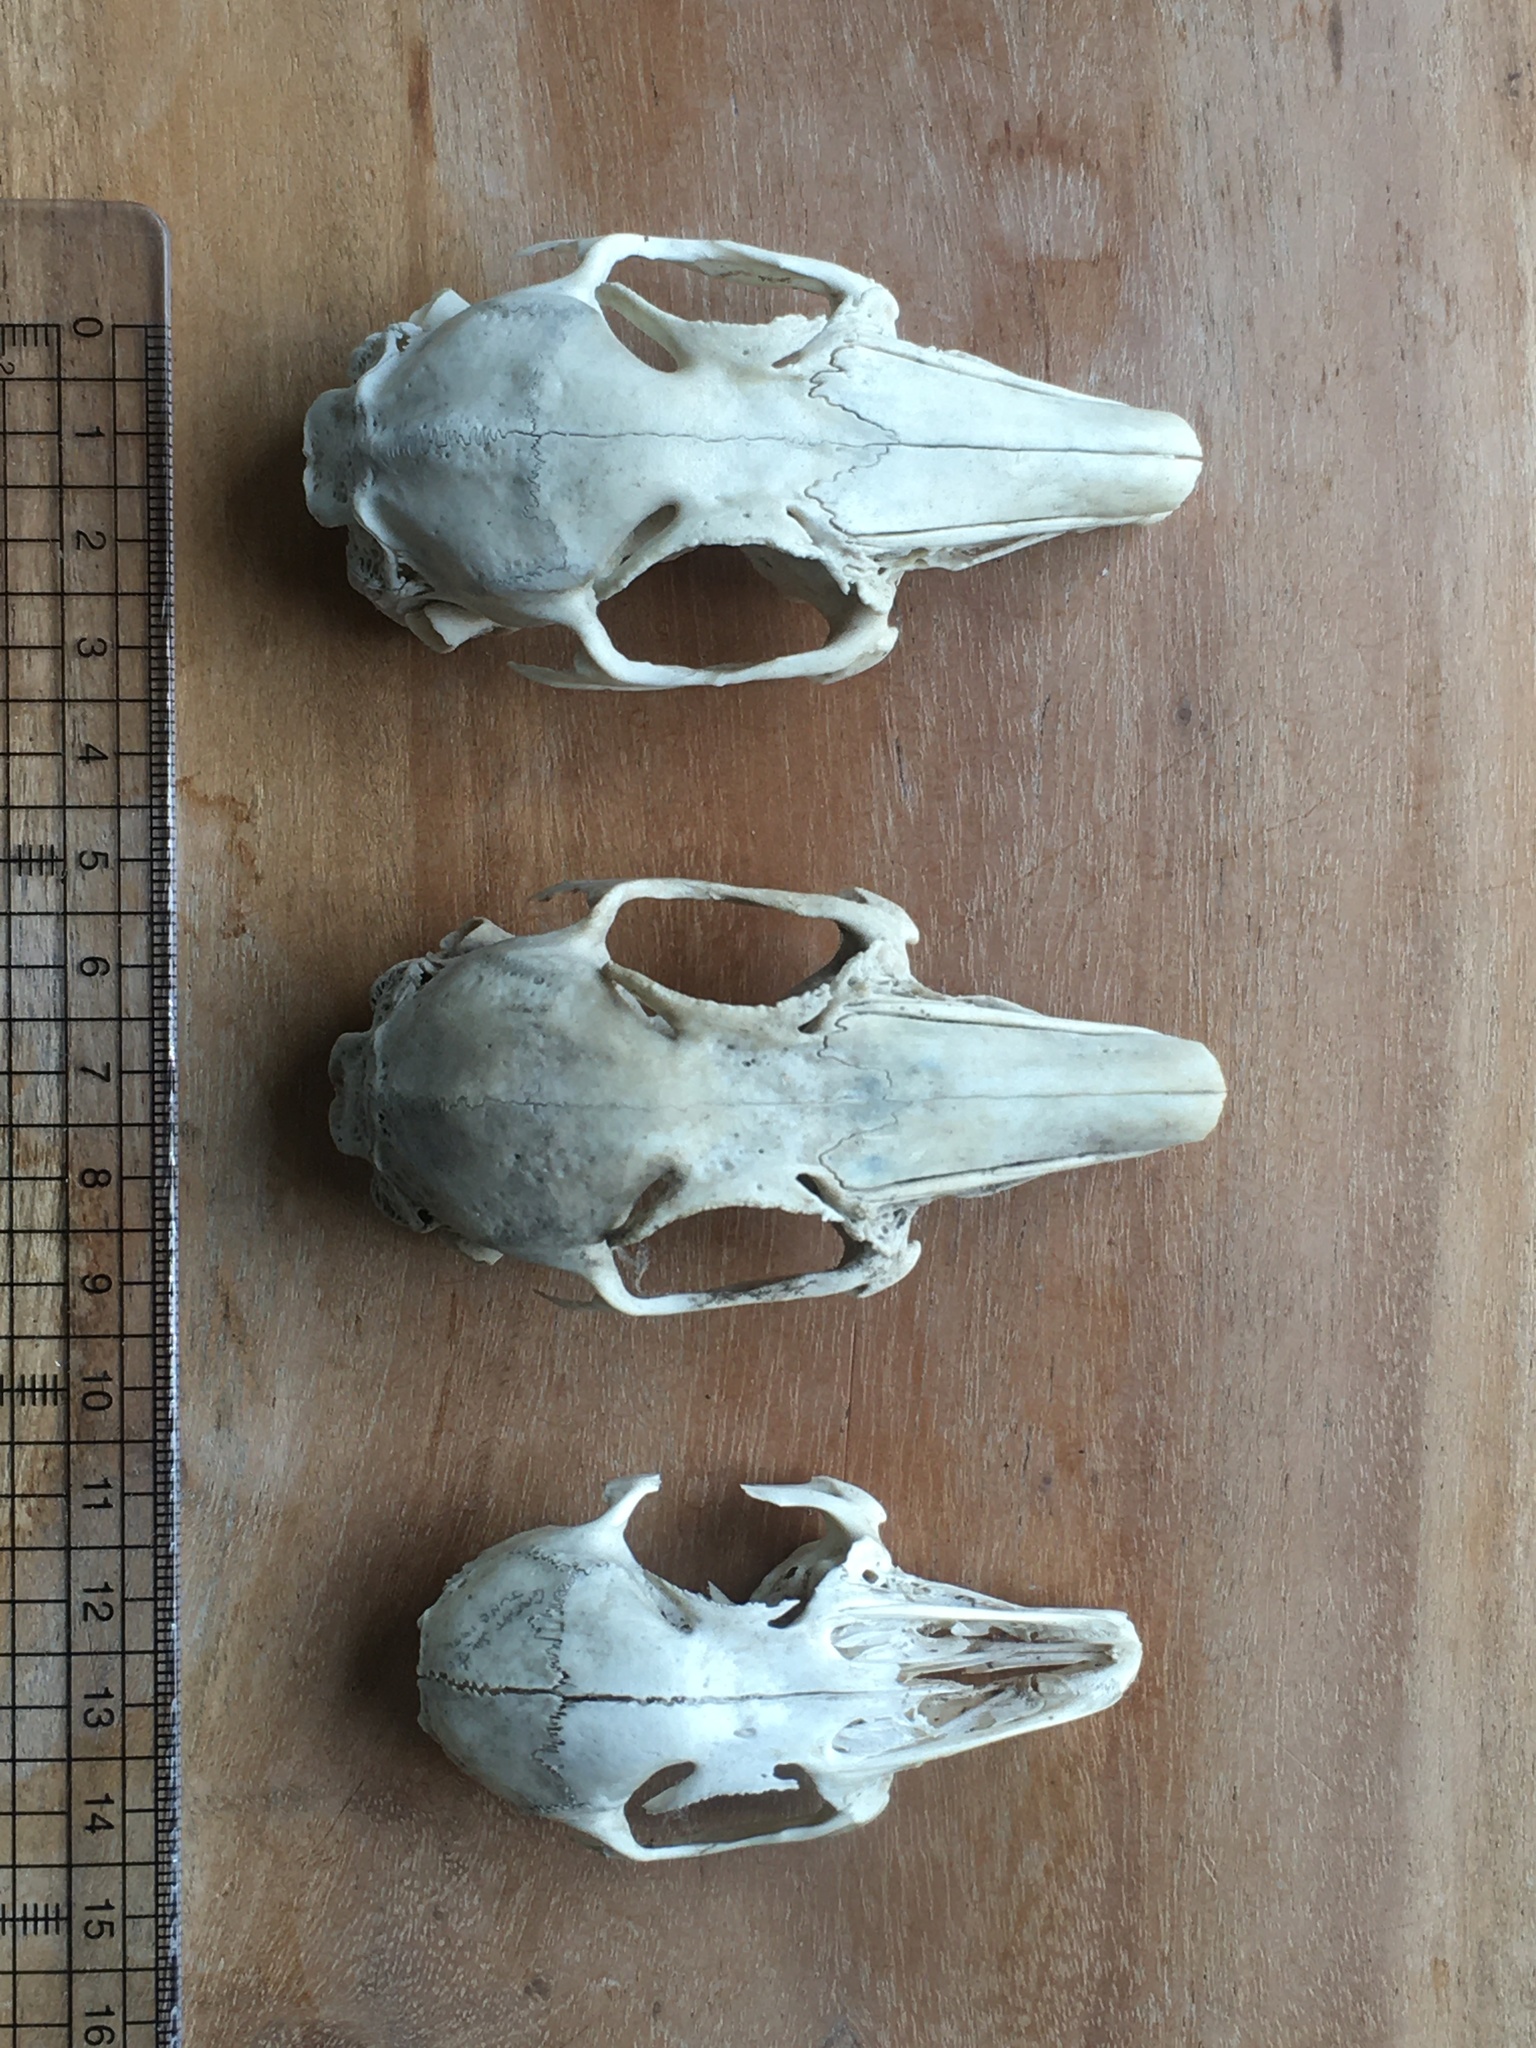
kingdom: Animalia
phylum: Chordata
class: Mammalia
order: Lagomorpha
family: Leporidae
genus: Oryctolagus
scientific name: Oryctolagus cuniculus
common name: European rabbit
